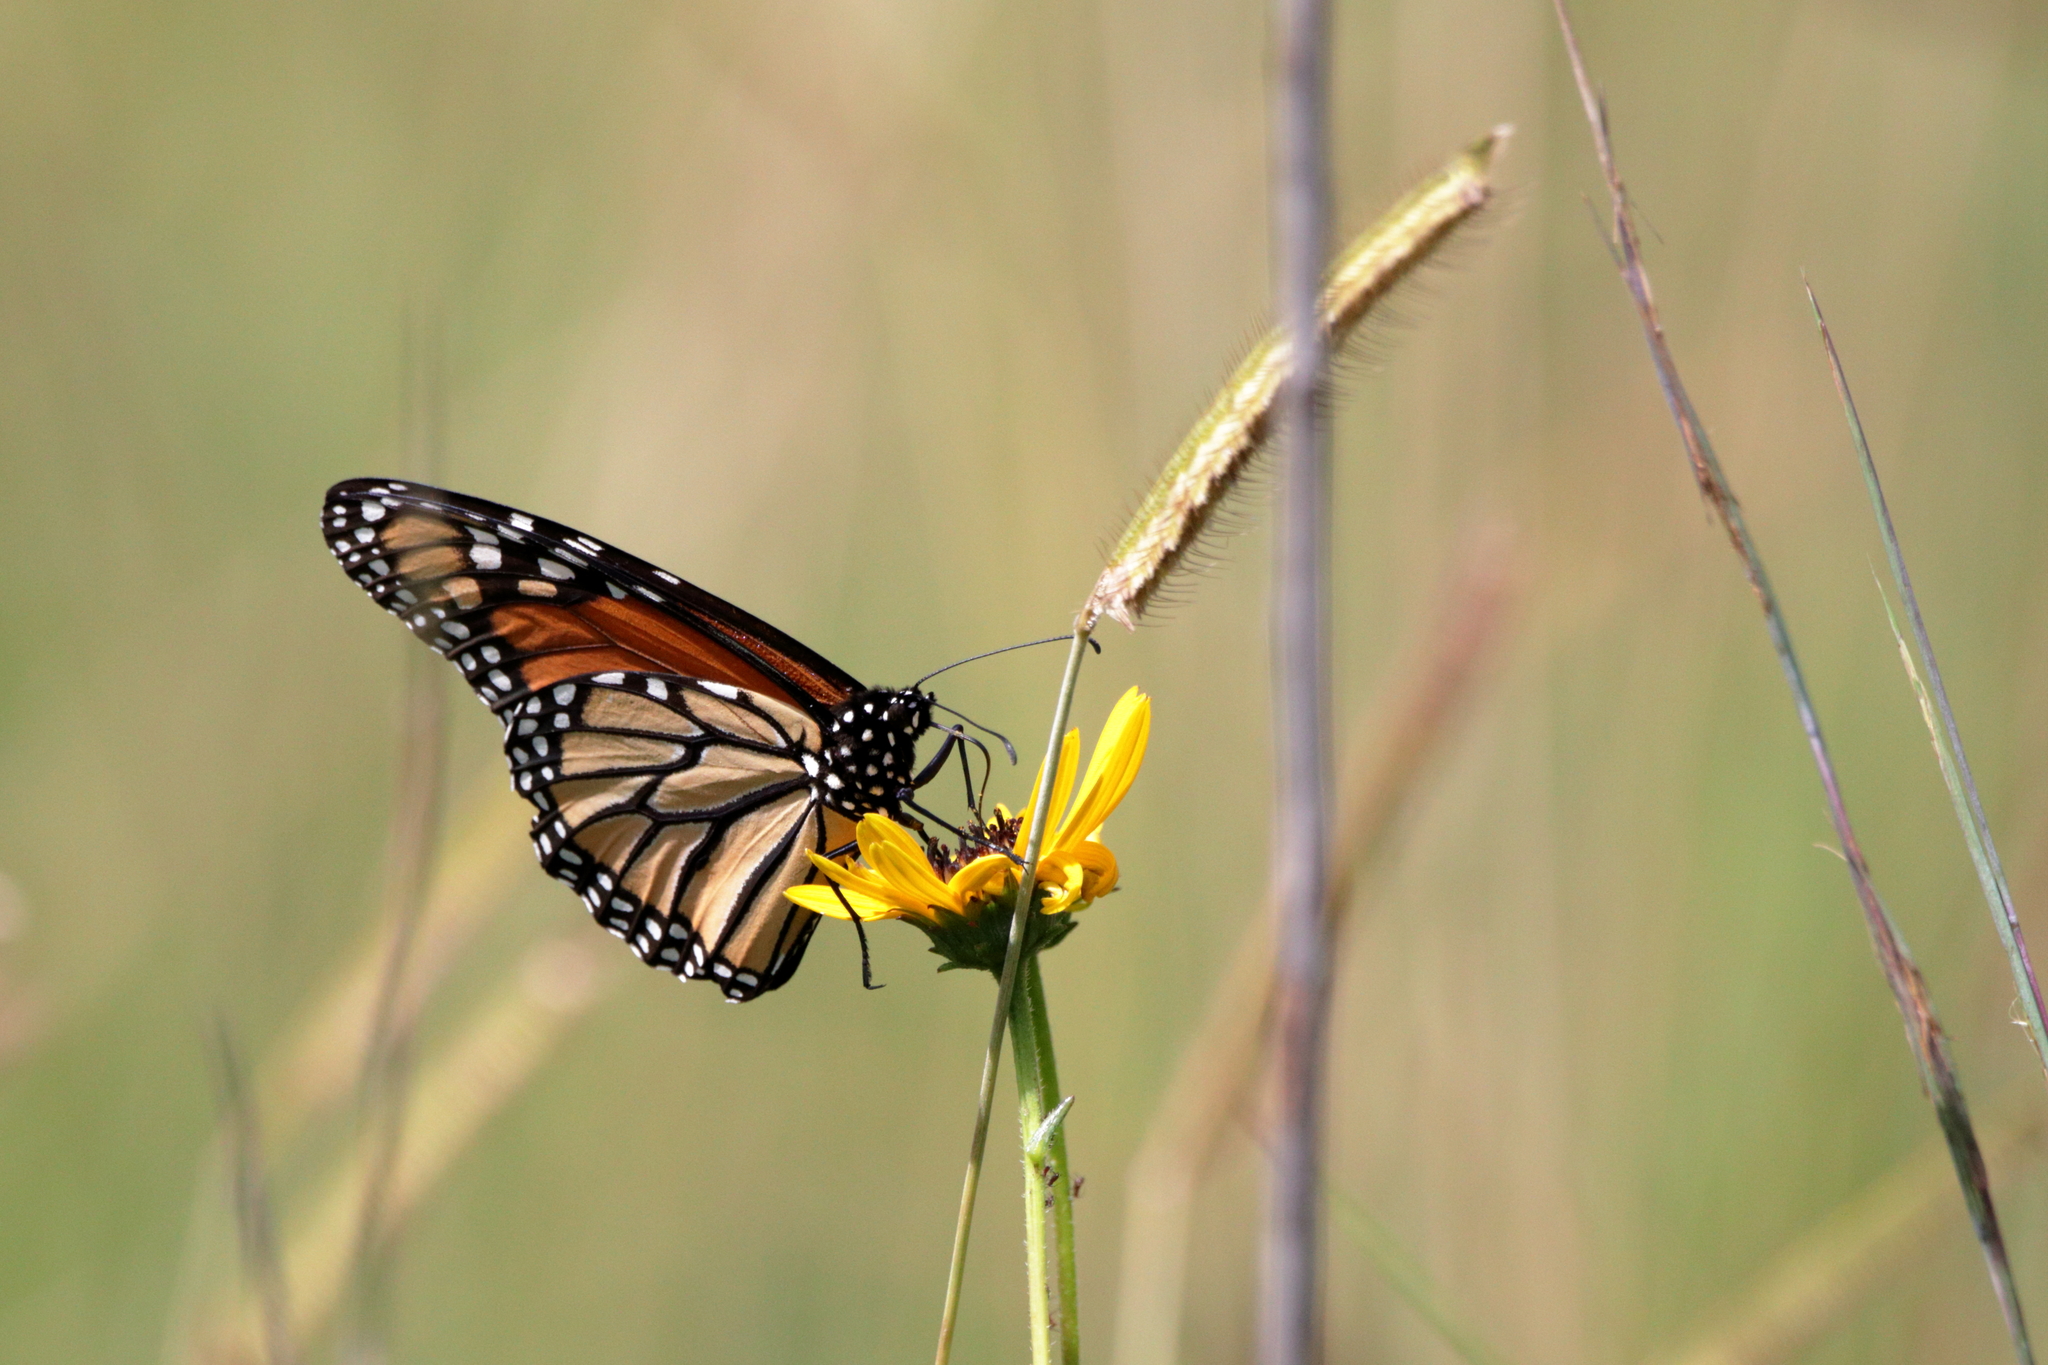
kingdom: Animalia
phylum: Arthropoda
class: Insecta
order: Lepidoptera
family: Nymphalidae
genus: Danaus
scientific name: Danaus plexippus
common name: Monarch
